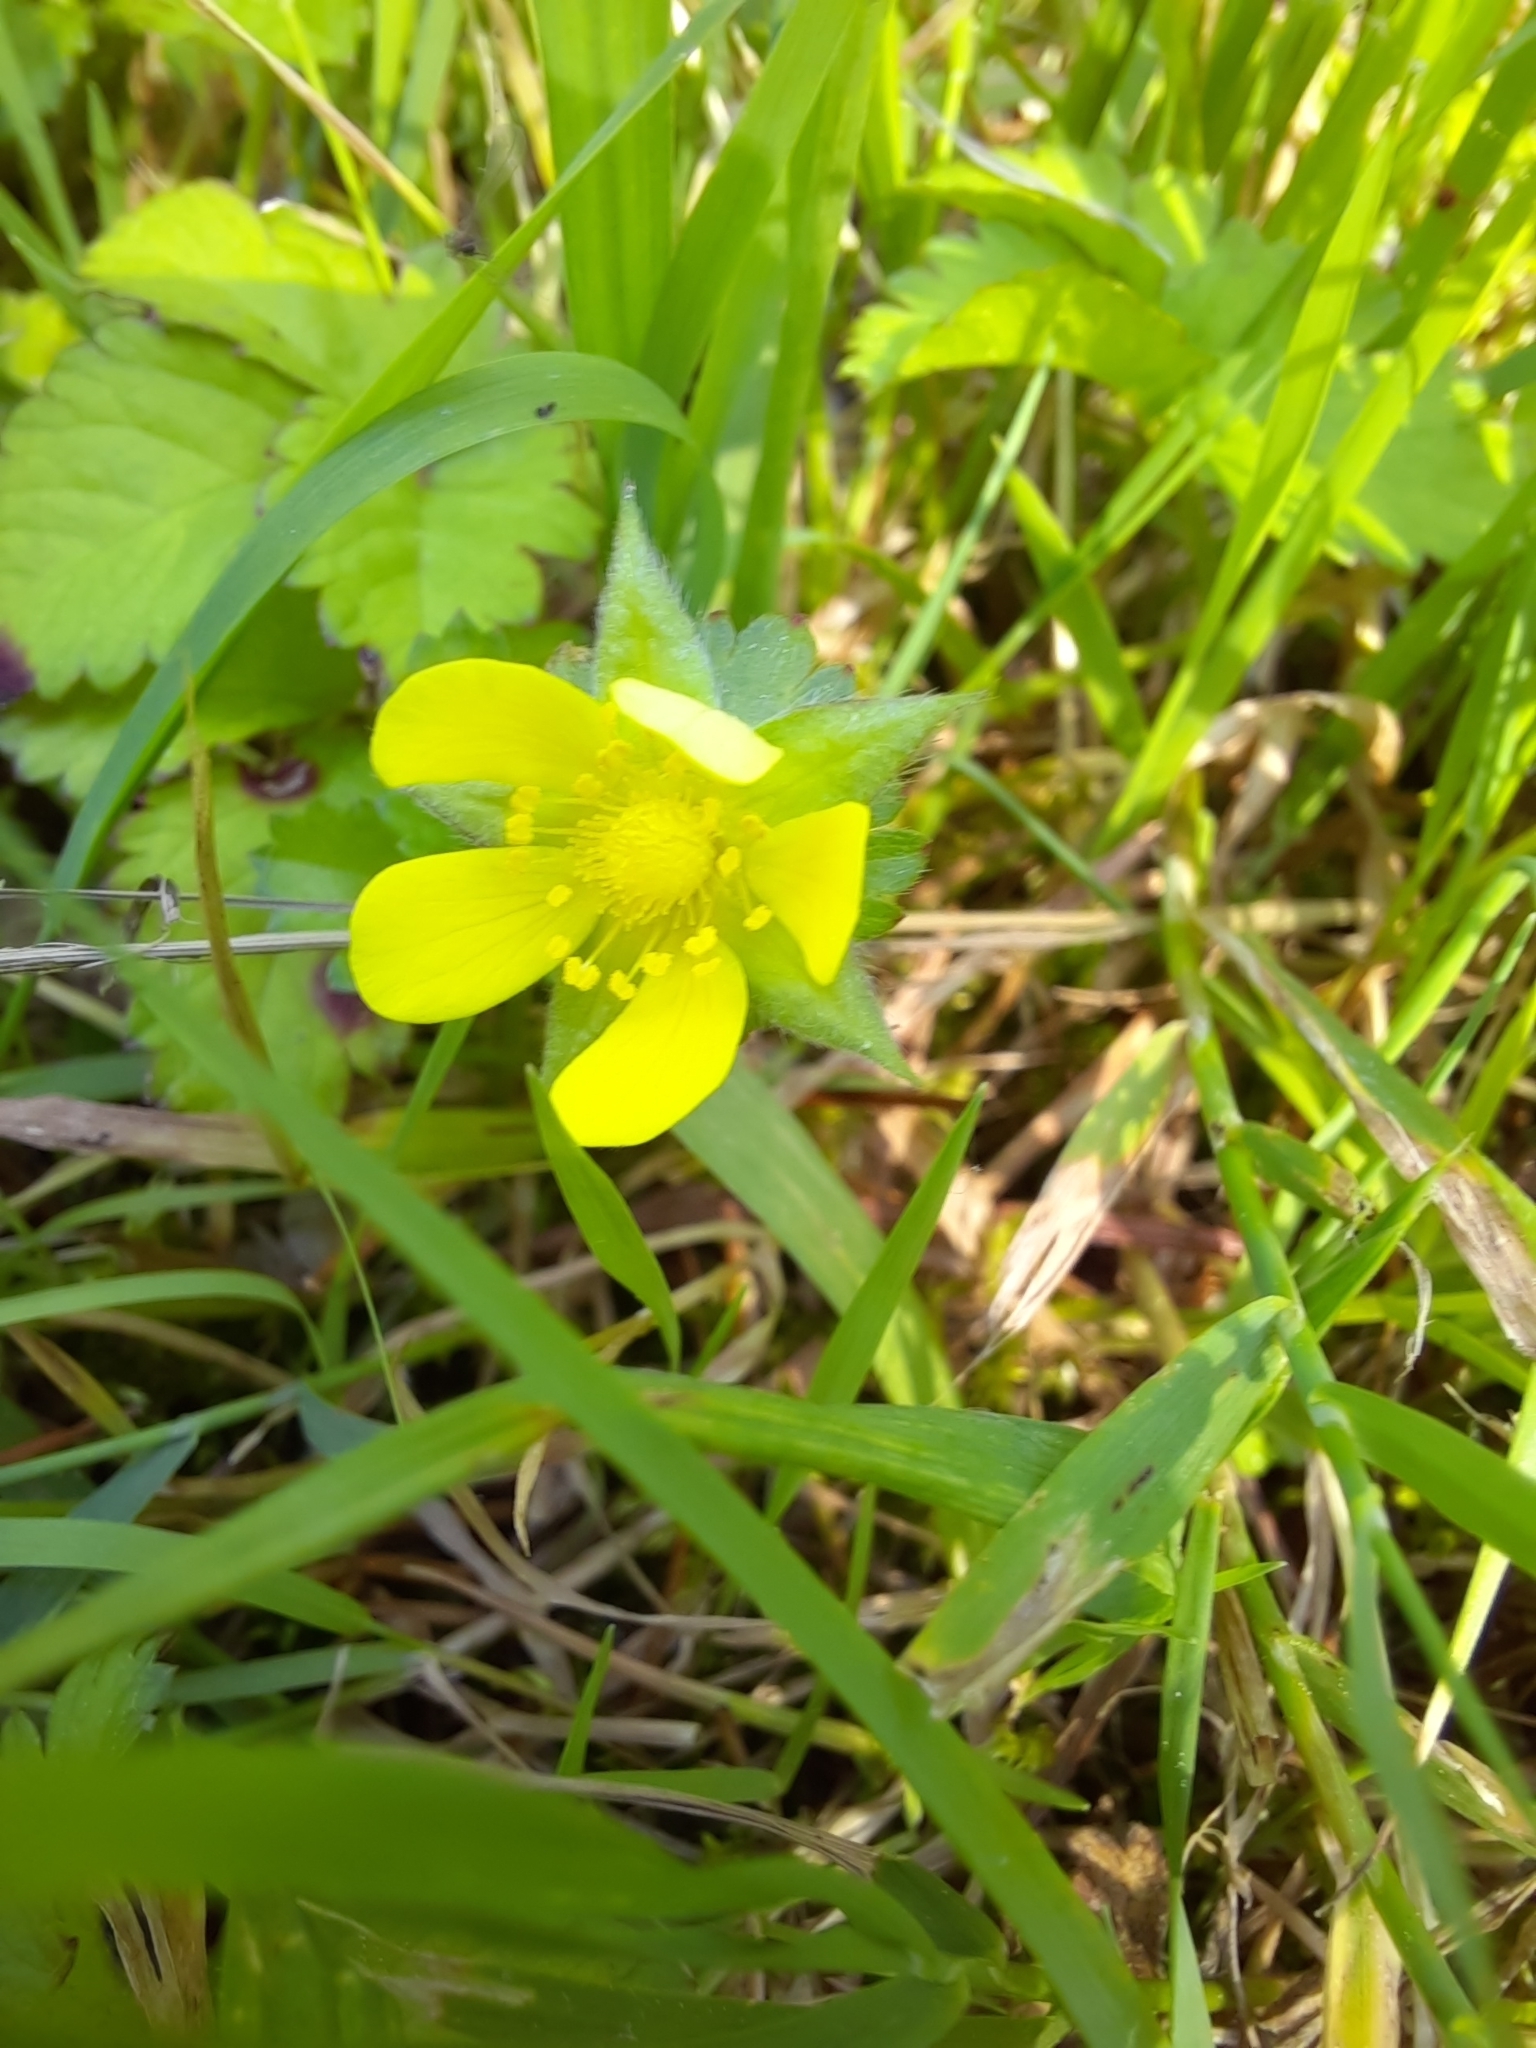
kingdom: Plantae
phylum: Tracheophyta
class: Magnoliopsida
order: Rosales
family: Rosaceae
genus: Potentilla
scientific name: Potentilla indica
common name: Yellow-flowered strawberry
